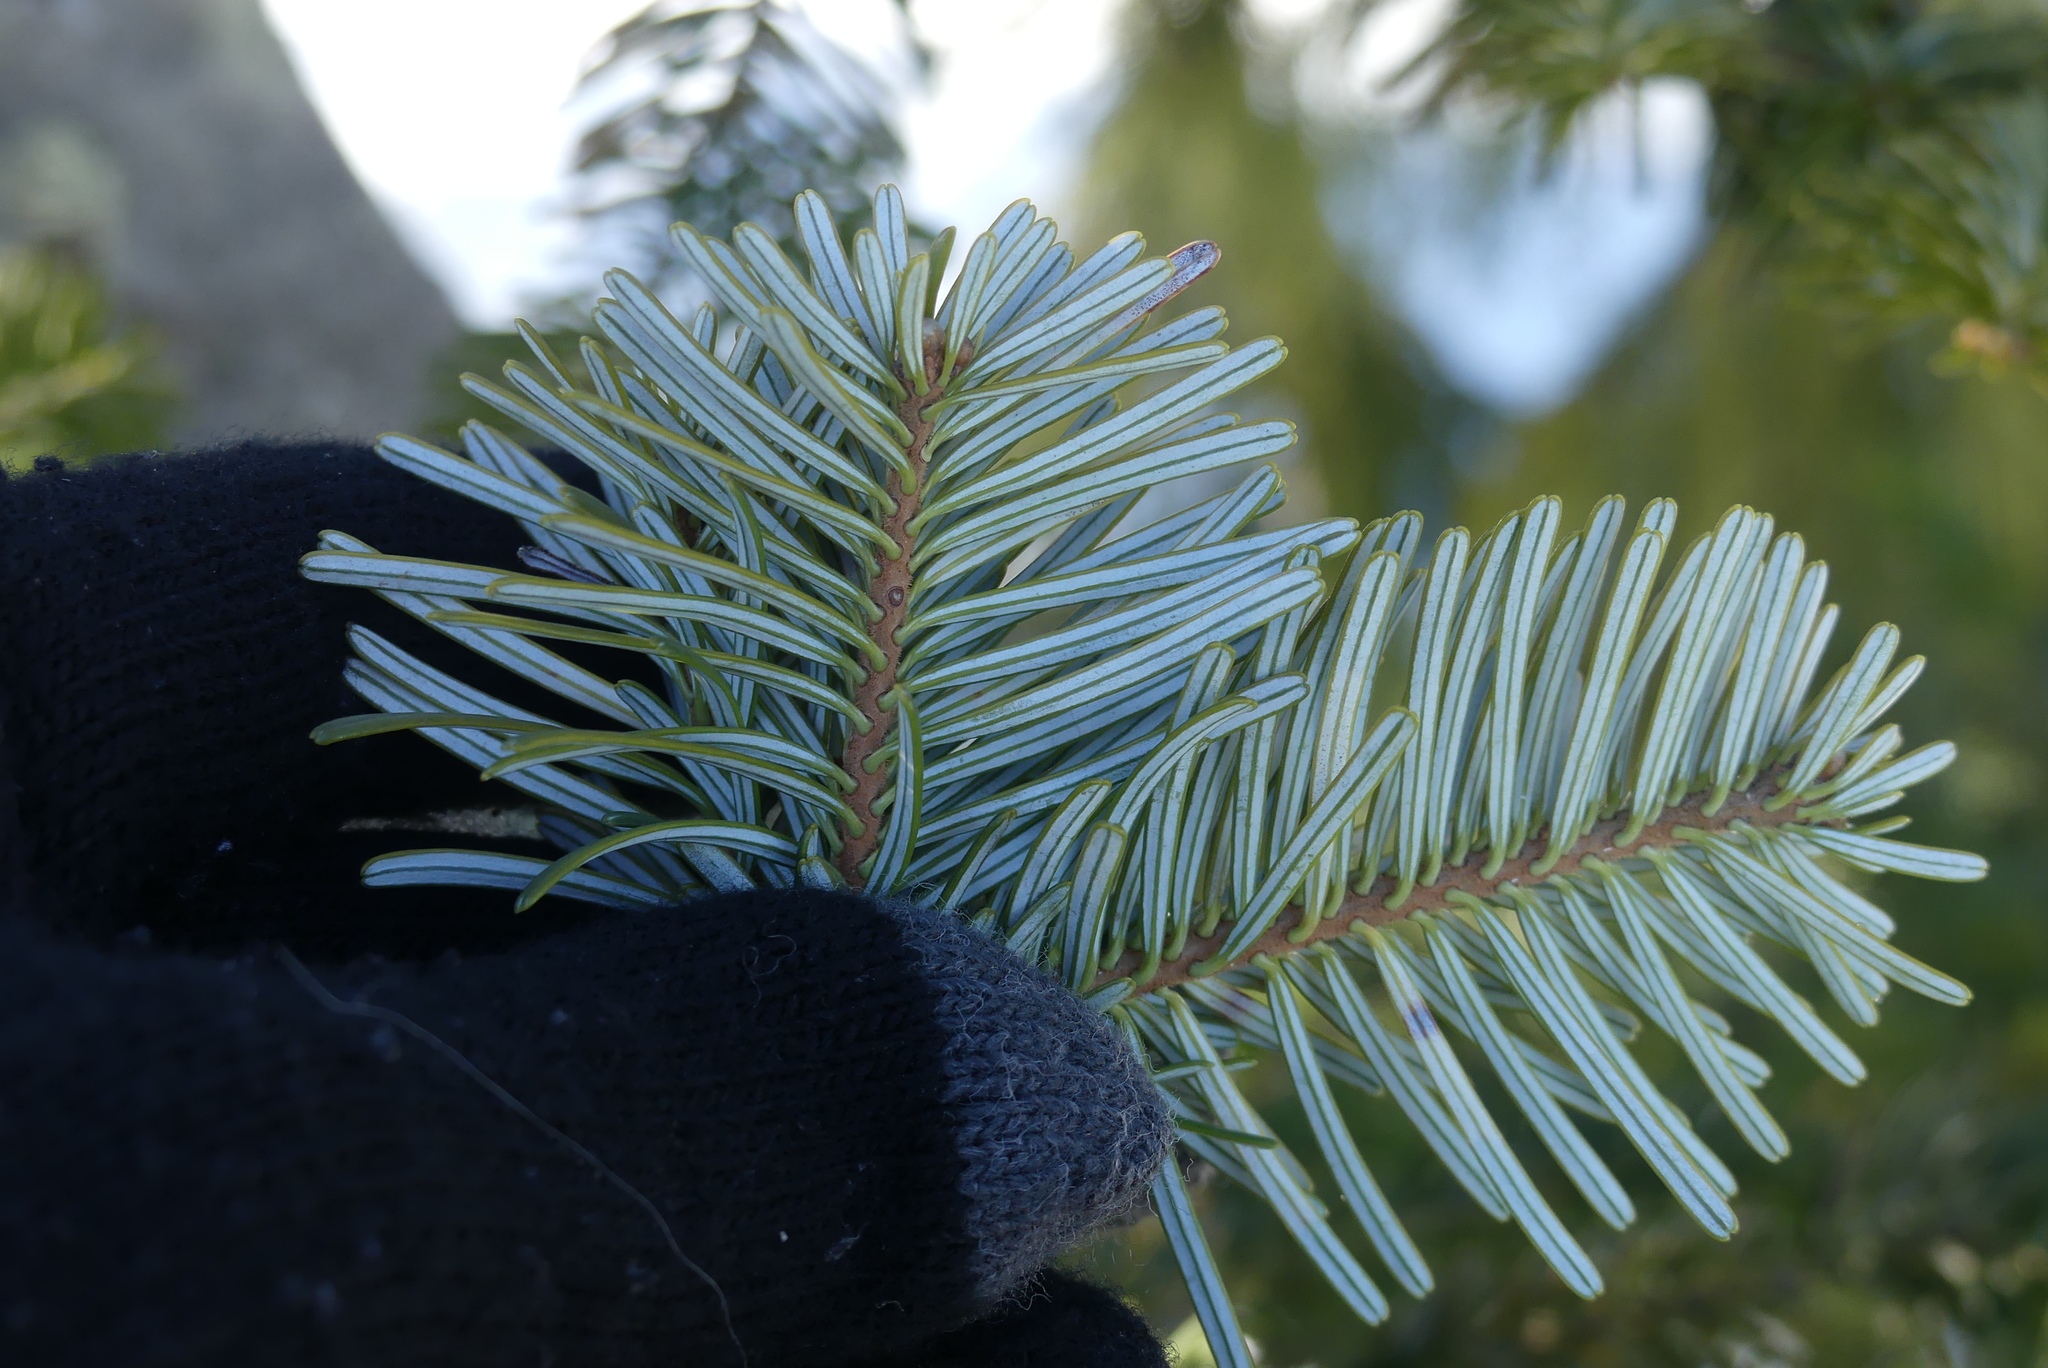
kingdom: Plantae
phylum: Tracheophyta
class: Pinopsida
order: Pinales
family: Pinaceae
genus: Abies
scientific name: Abies amabilis
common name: Pacific silver fir
